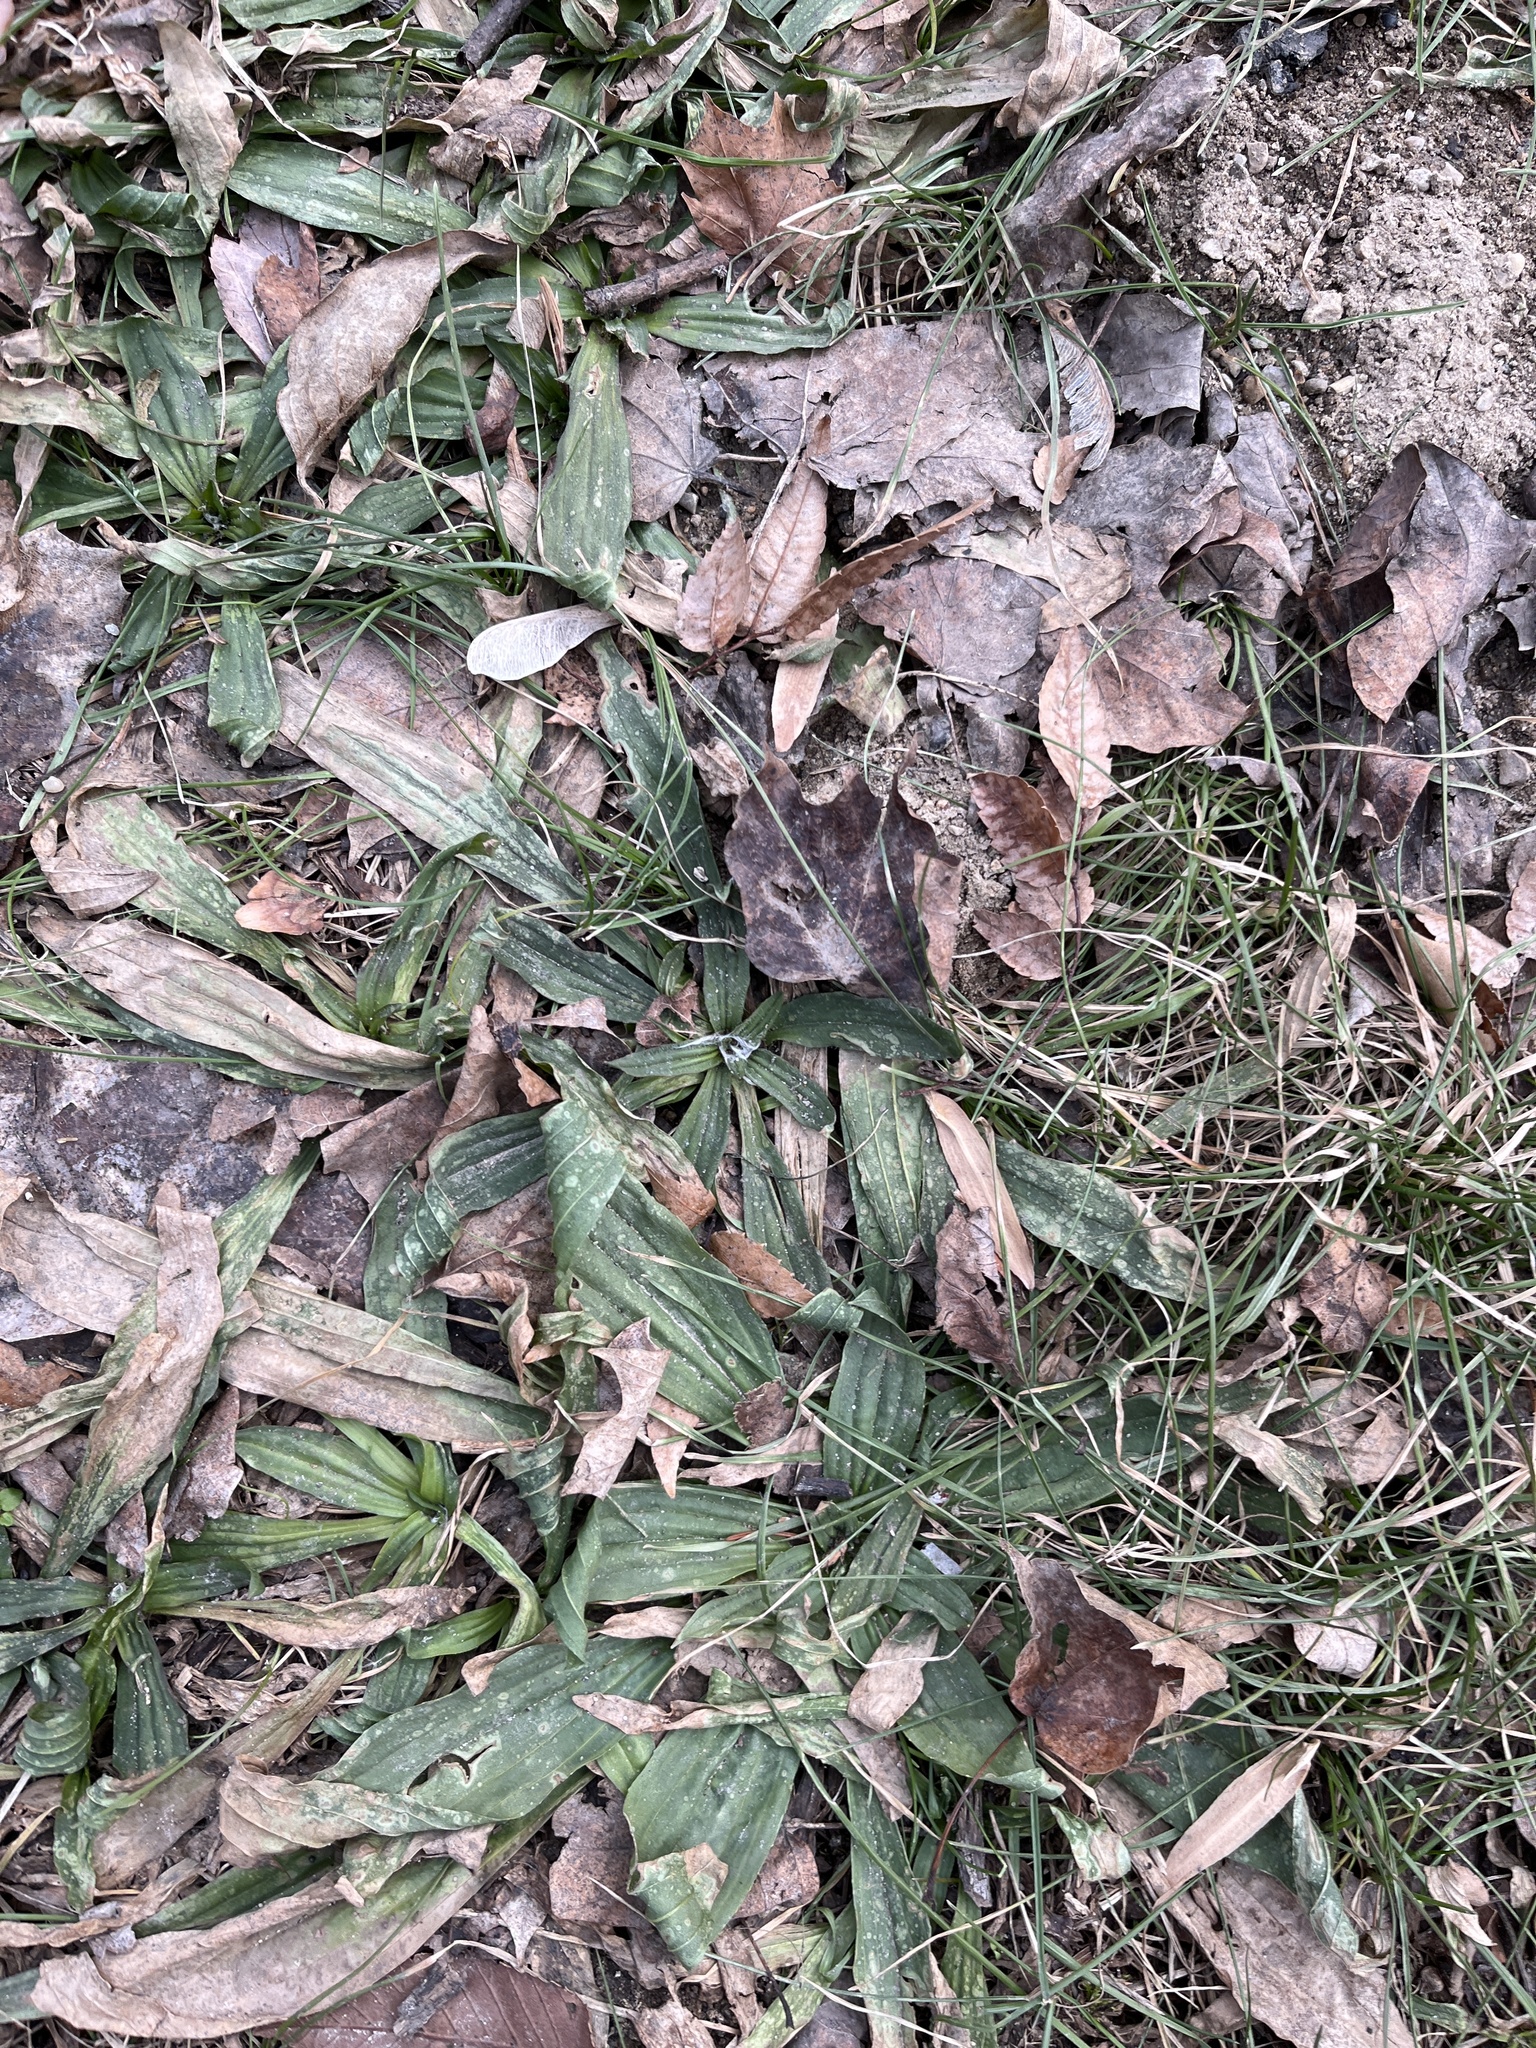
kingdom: Plantae
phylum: Tracheophyta
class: Magnoliopsida
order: Lamiales
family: Plantaginaceae
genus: Plantago
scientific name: Plantago lanceolata
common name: Ribwort plantain
